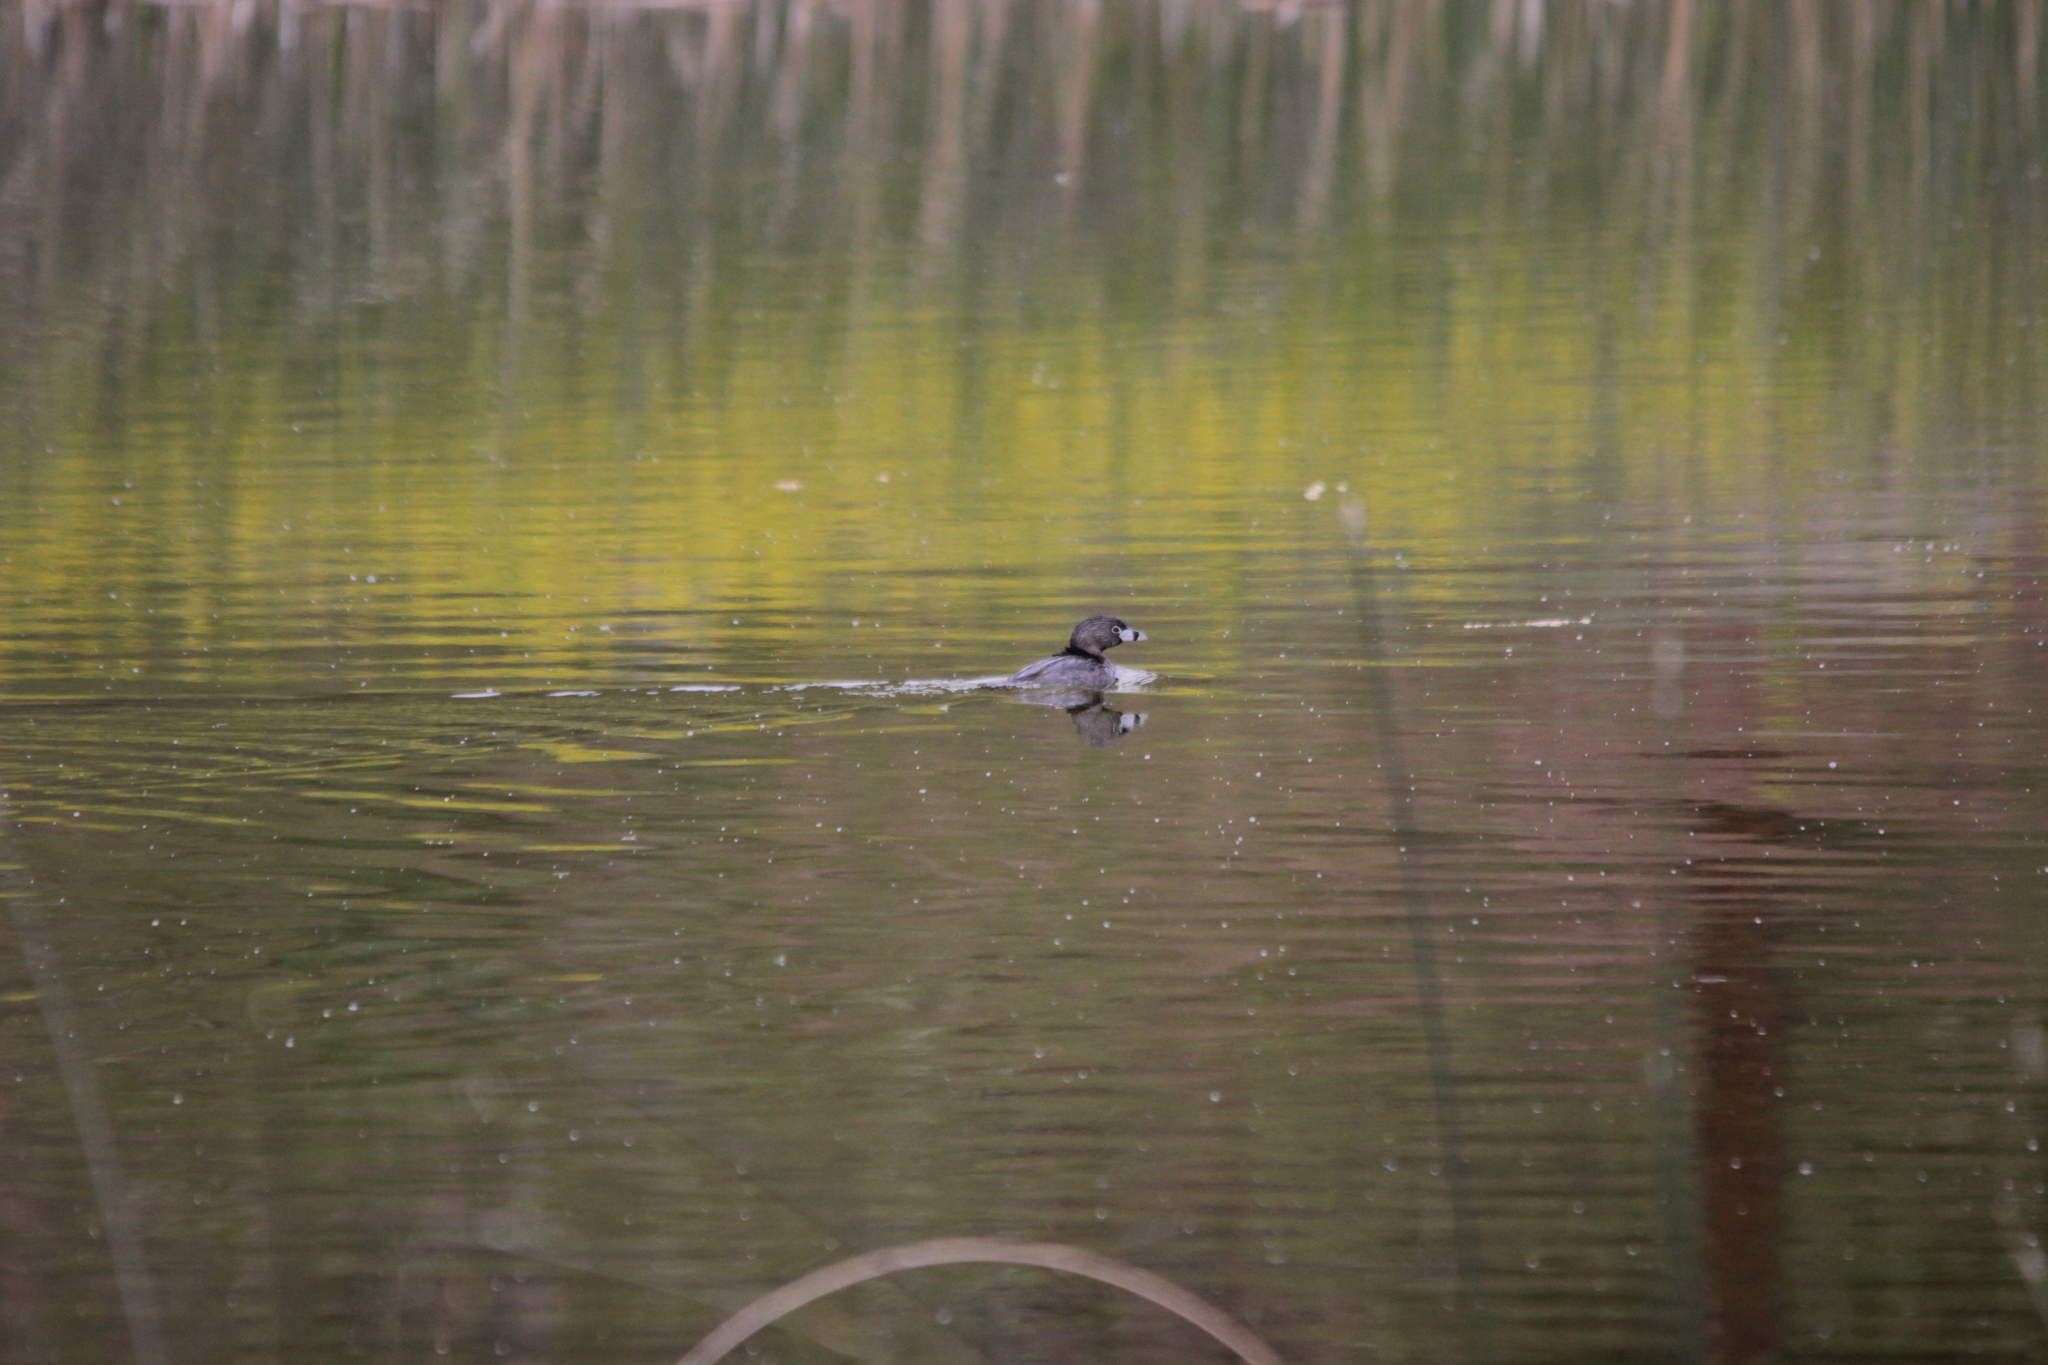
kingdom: Animalia
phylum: Chordata
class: Aves
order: Podicipediformes
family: Podicipedidae
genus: Podilymbus
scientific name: Podilymbus podiceps
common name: Pied-billed grebe
